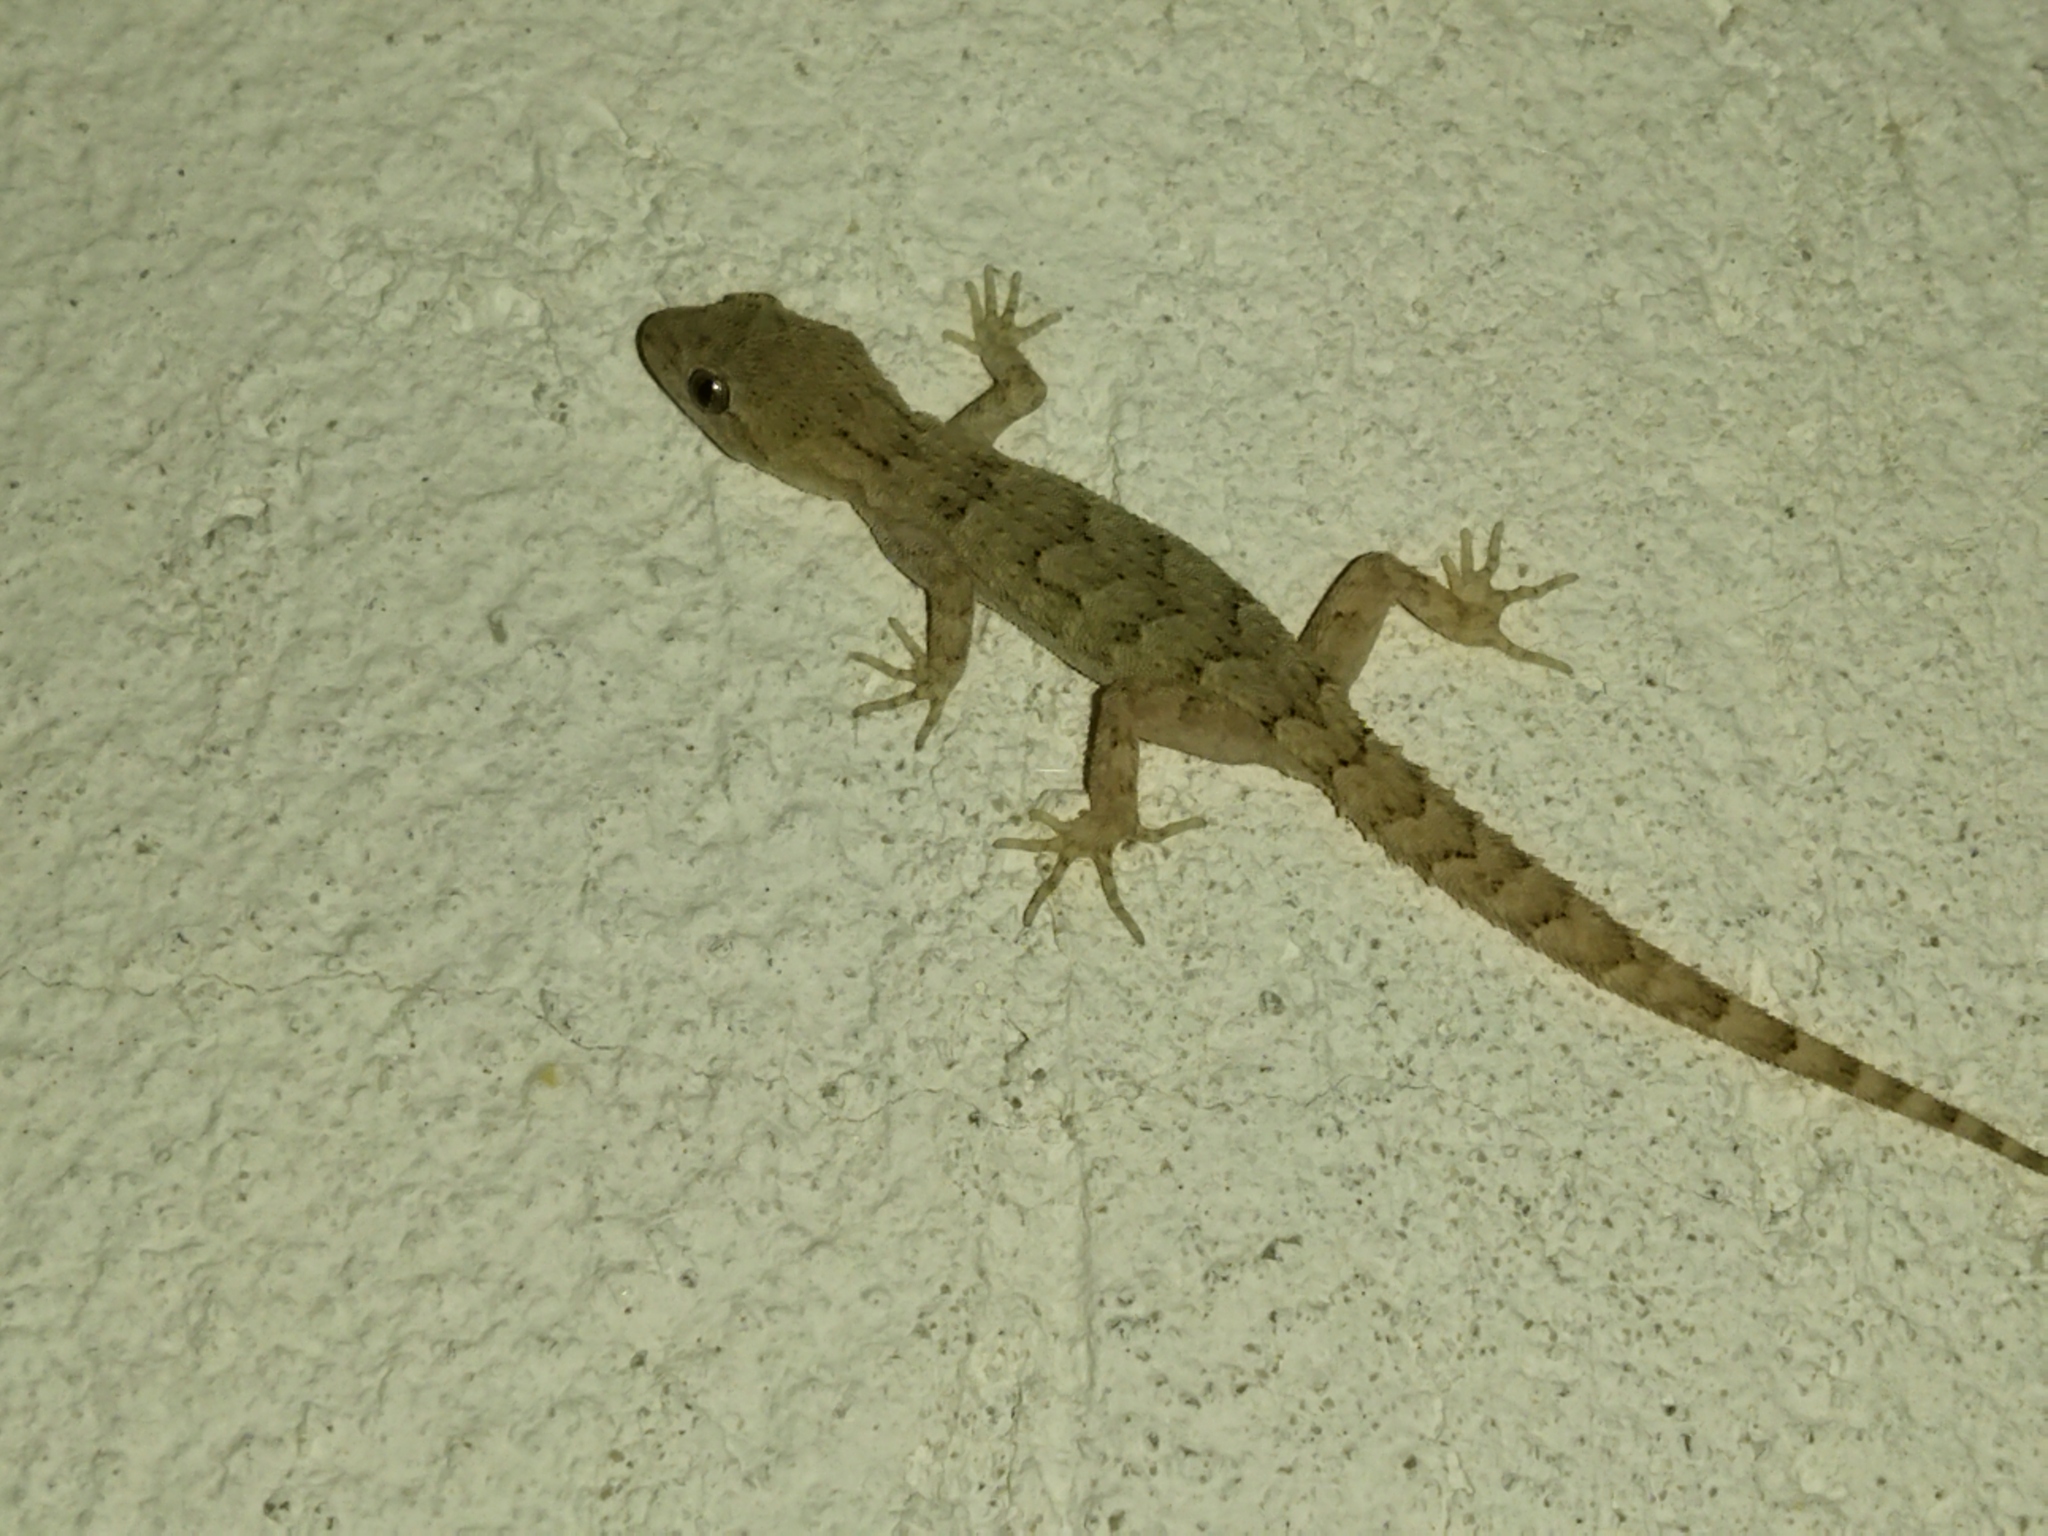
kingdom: Animalia
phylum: Chordata
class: Squamata
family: Gekkonidae
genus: Mediodactylus
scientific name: Mediodactylus kotschyi
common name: Kotschy's gecko
